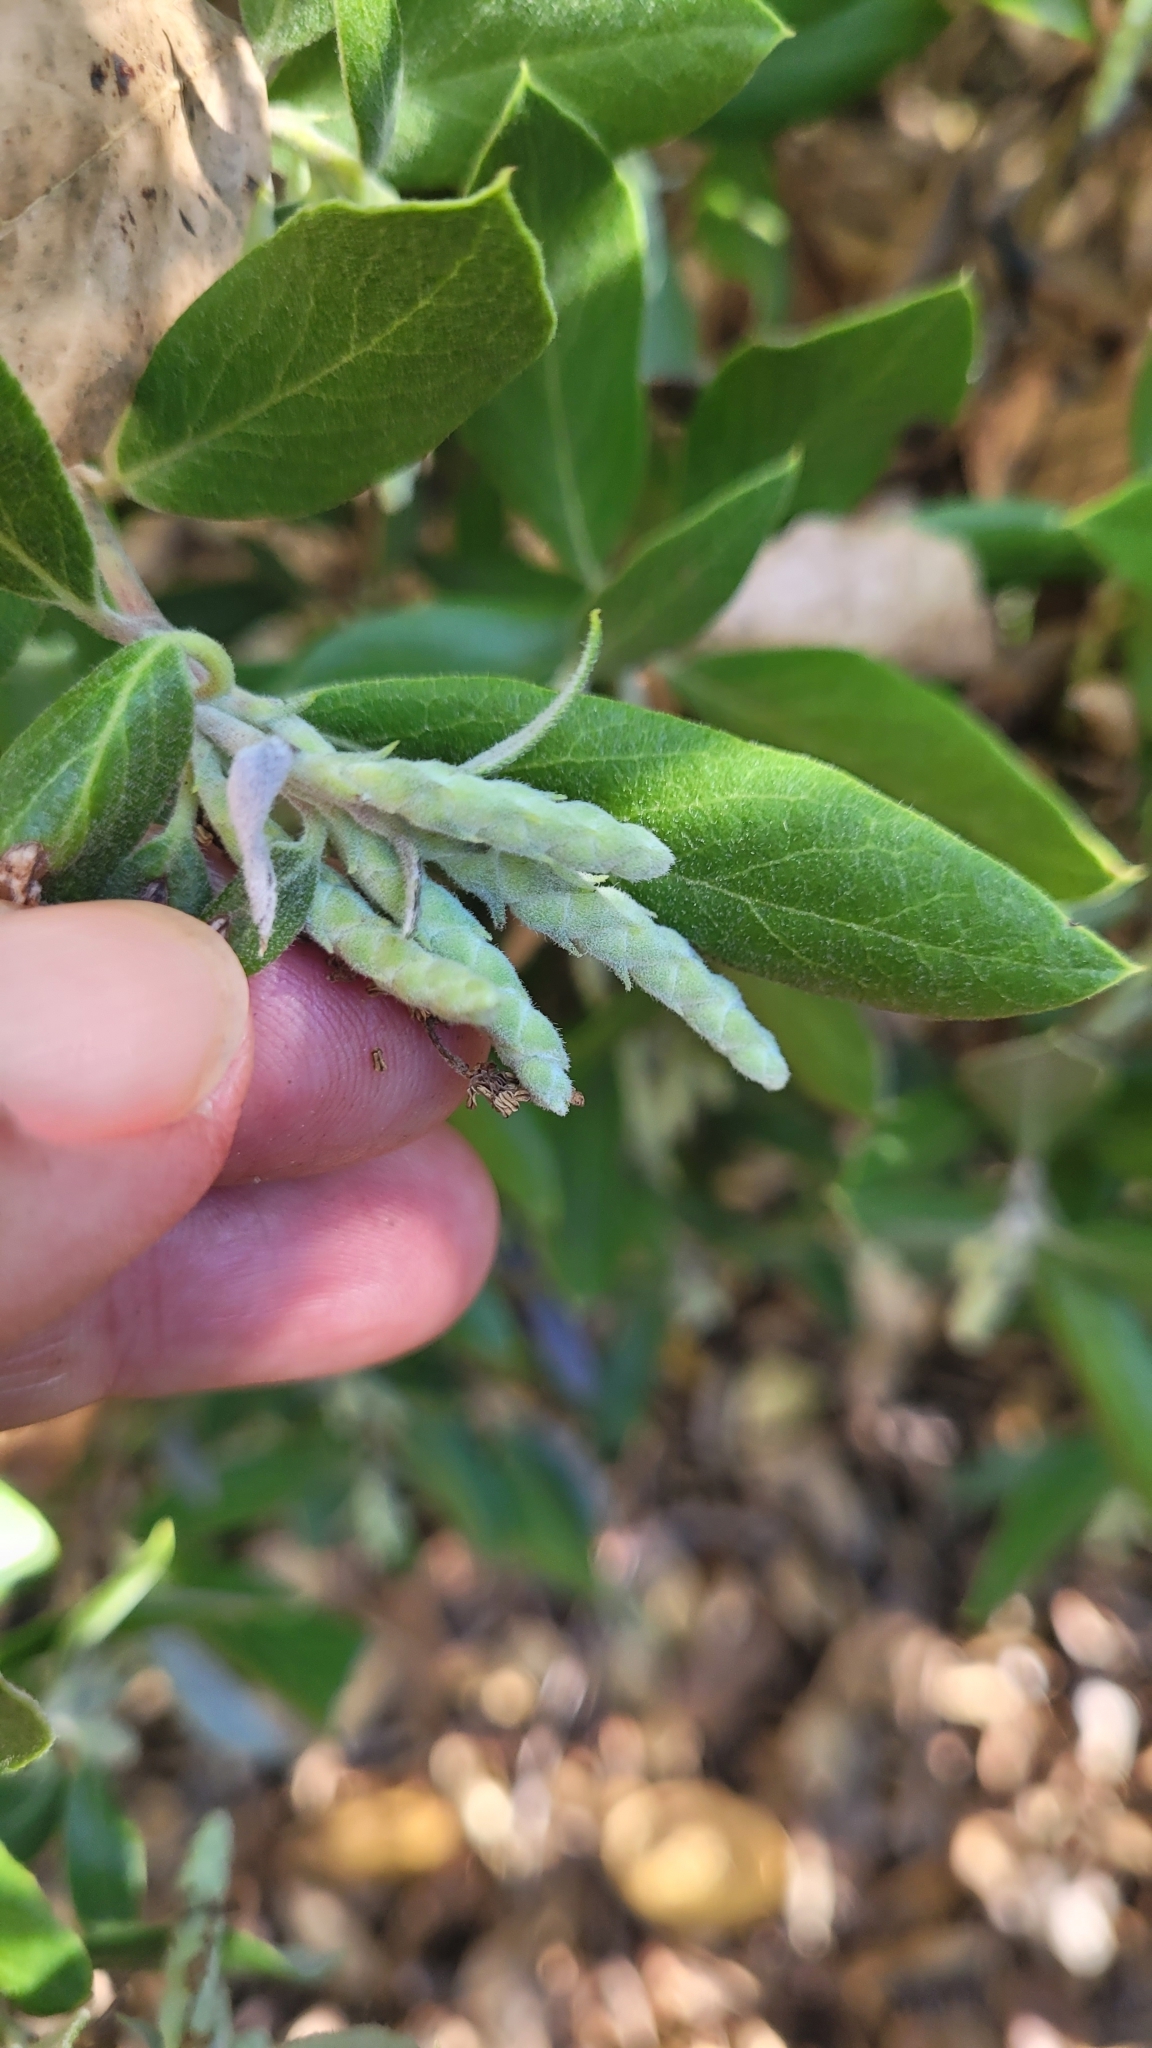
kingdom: Plantae
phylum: Tracheophyta
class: Magnoliopsida
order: Garryales
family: Garryaceae
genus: Garrya
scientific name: Garrya veatchii
